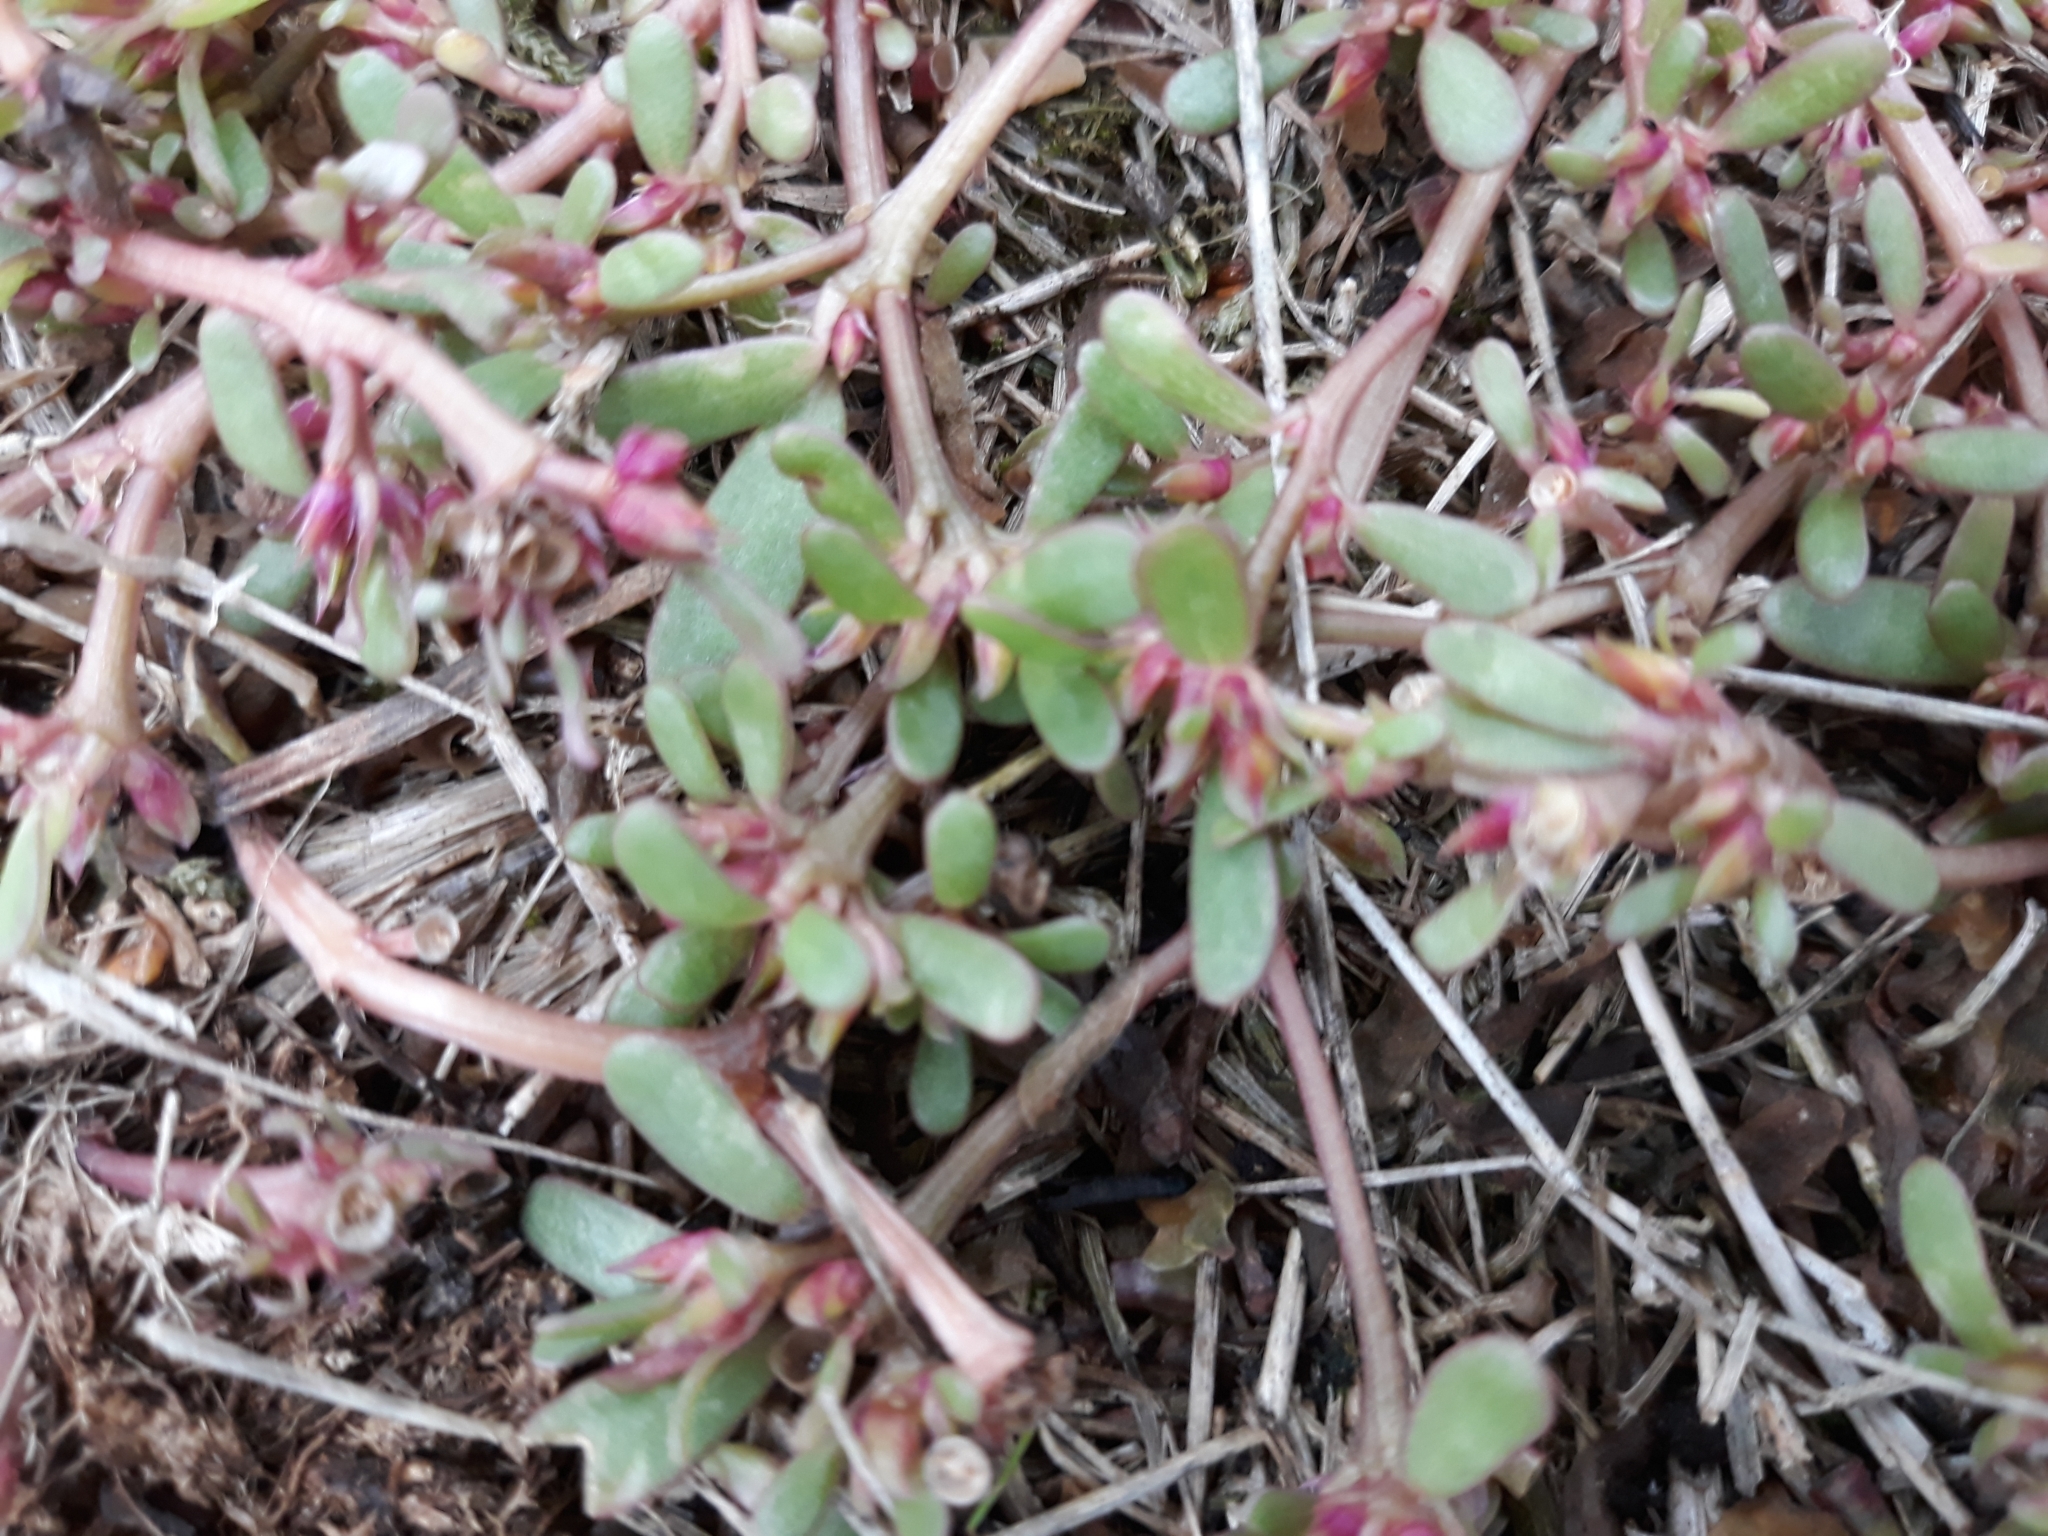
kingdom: Plantae
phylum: Tracheophyta
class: Magnoliopsida
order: Caryophyllales
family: Portulacaceae
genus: Portulaca
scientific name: Portulaca oleracea
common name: Common purslane
